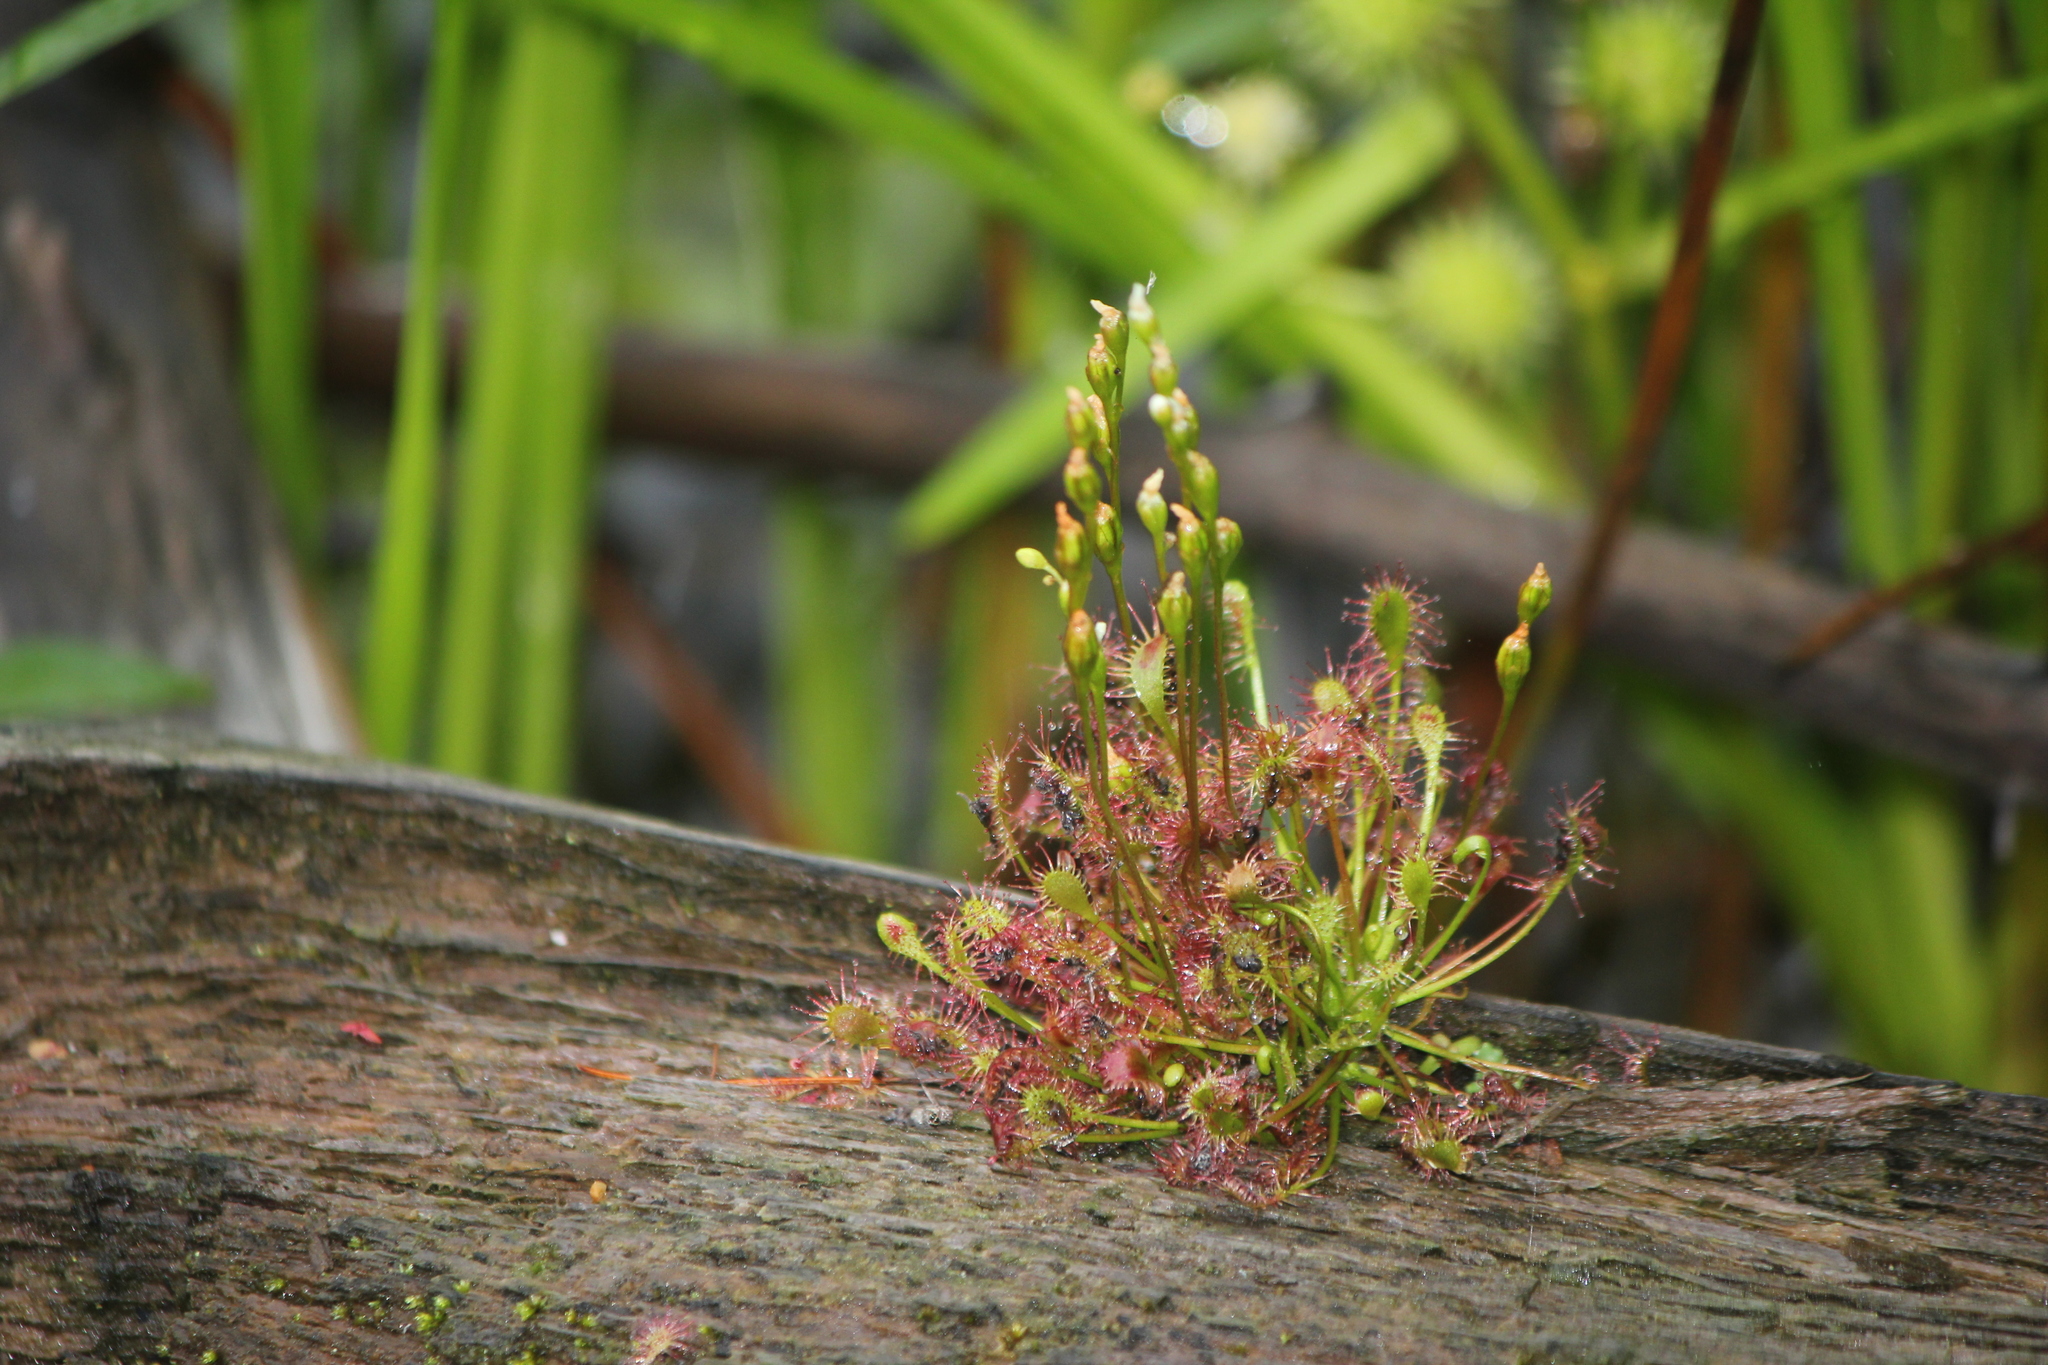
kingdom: Plantae
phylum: Tracheophyta
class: Magnoliopsida
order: Caryophyllales
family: Droseraceae
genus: Drosera
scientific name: Drosera intermedia
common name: Oblong-leaved sundew
